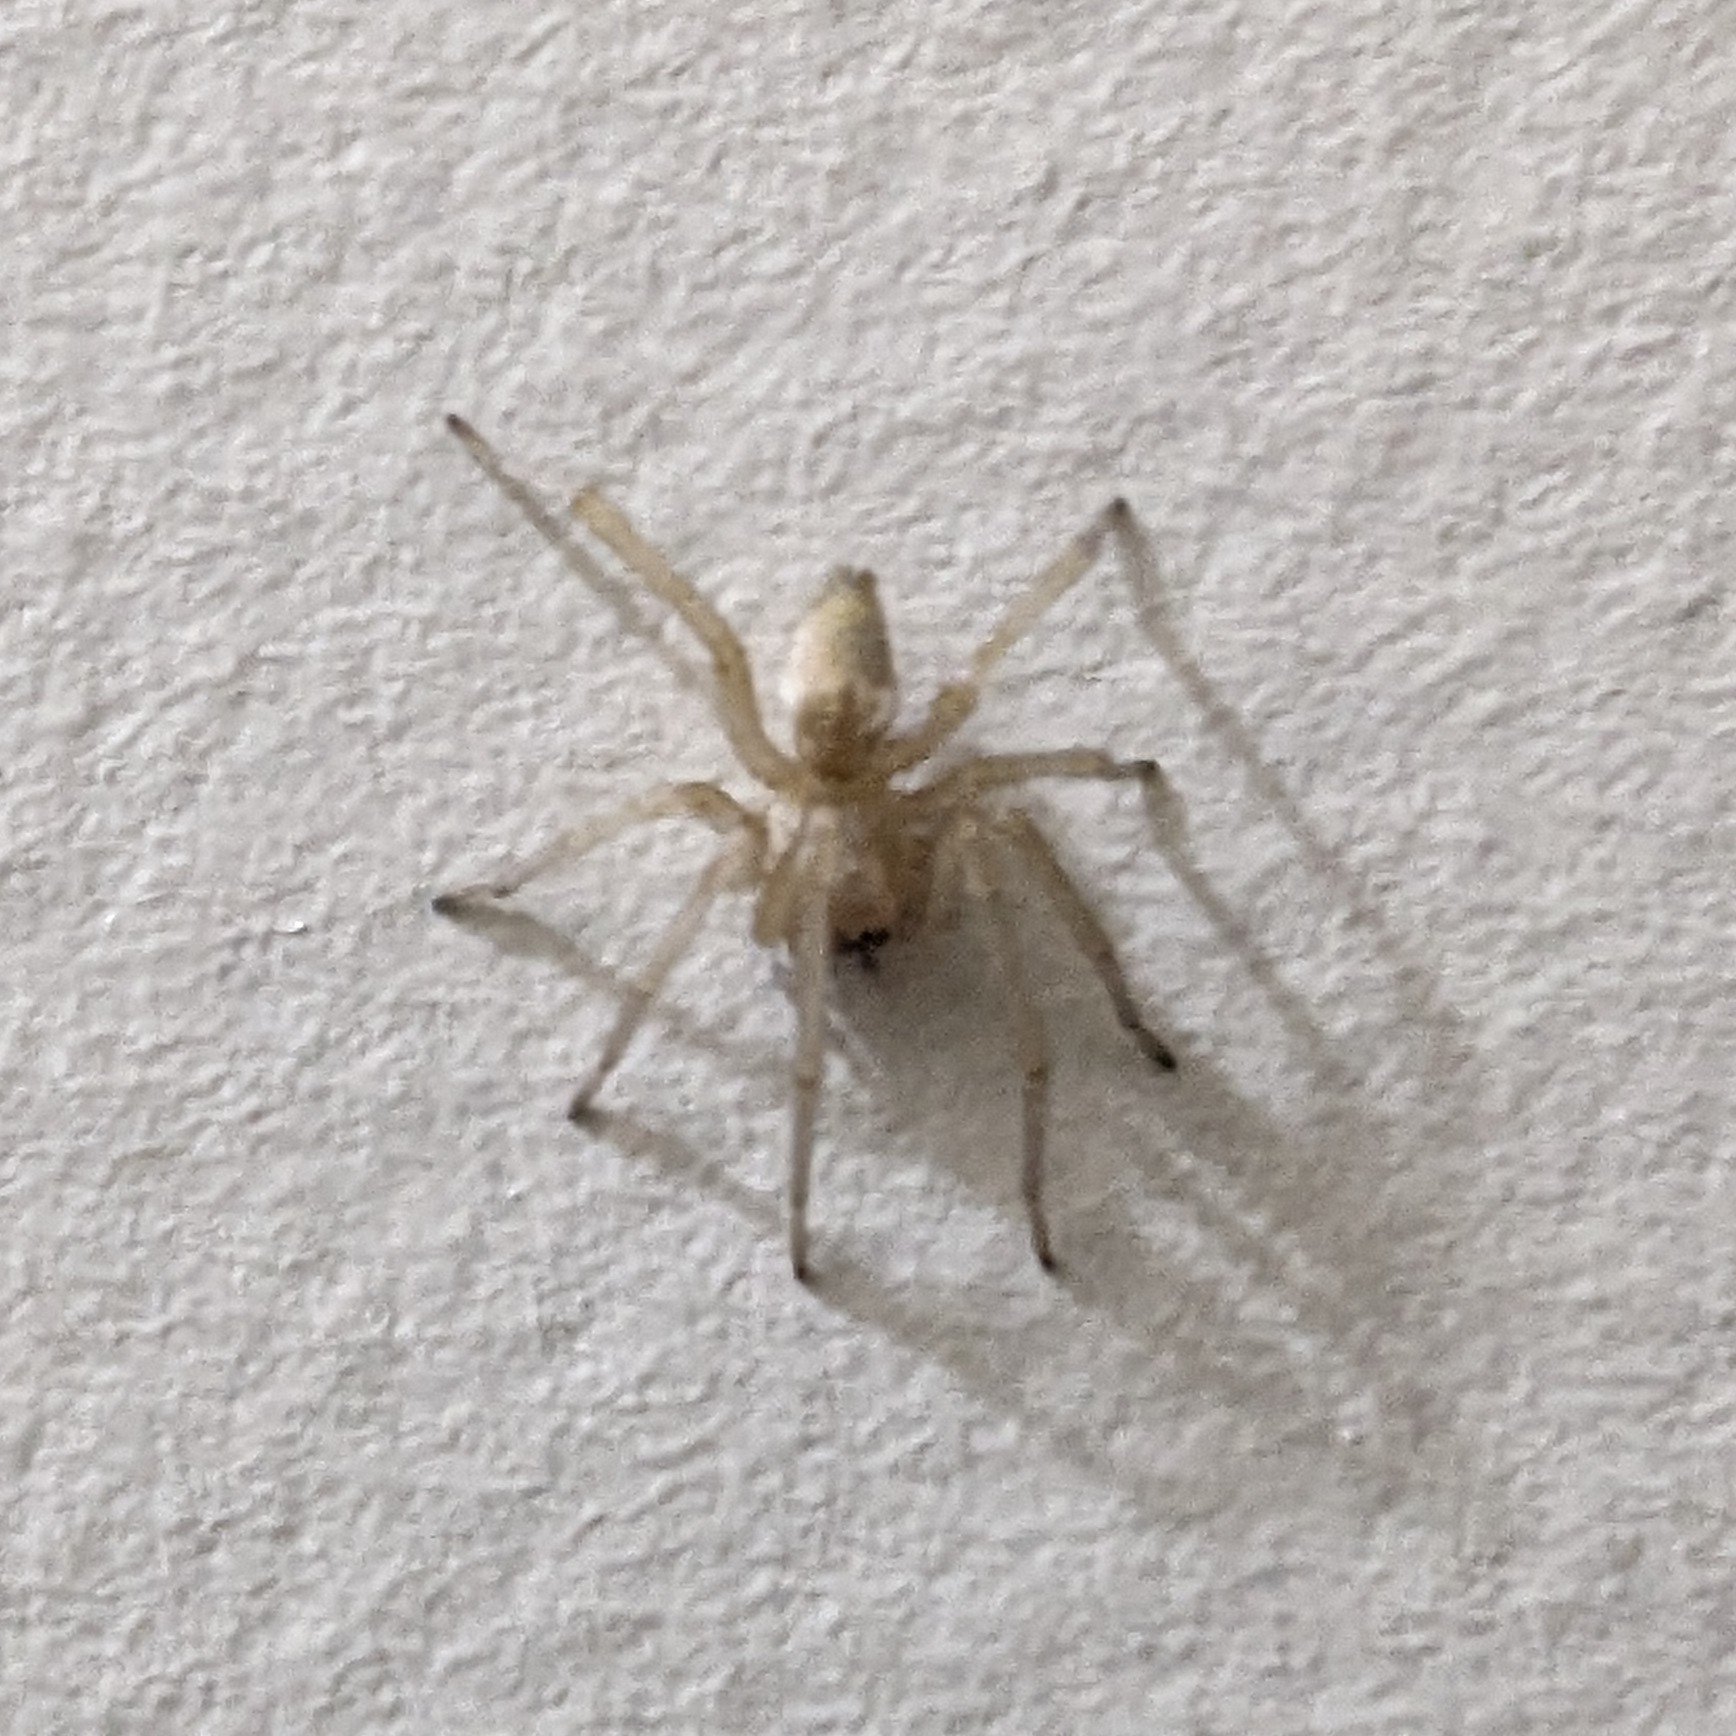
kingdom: Animalia
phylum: Arthropoda
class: Arachnida
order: Araneae
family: Cheiracanthiidae
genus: Cheiracanthium
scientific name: Cheiracanthium mildei
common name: Northern yellow sac spider
